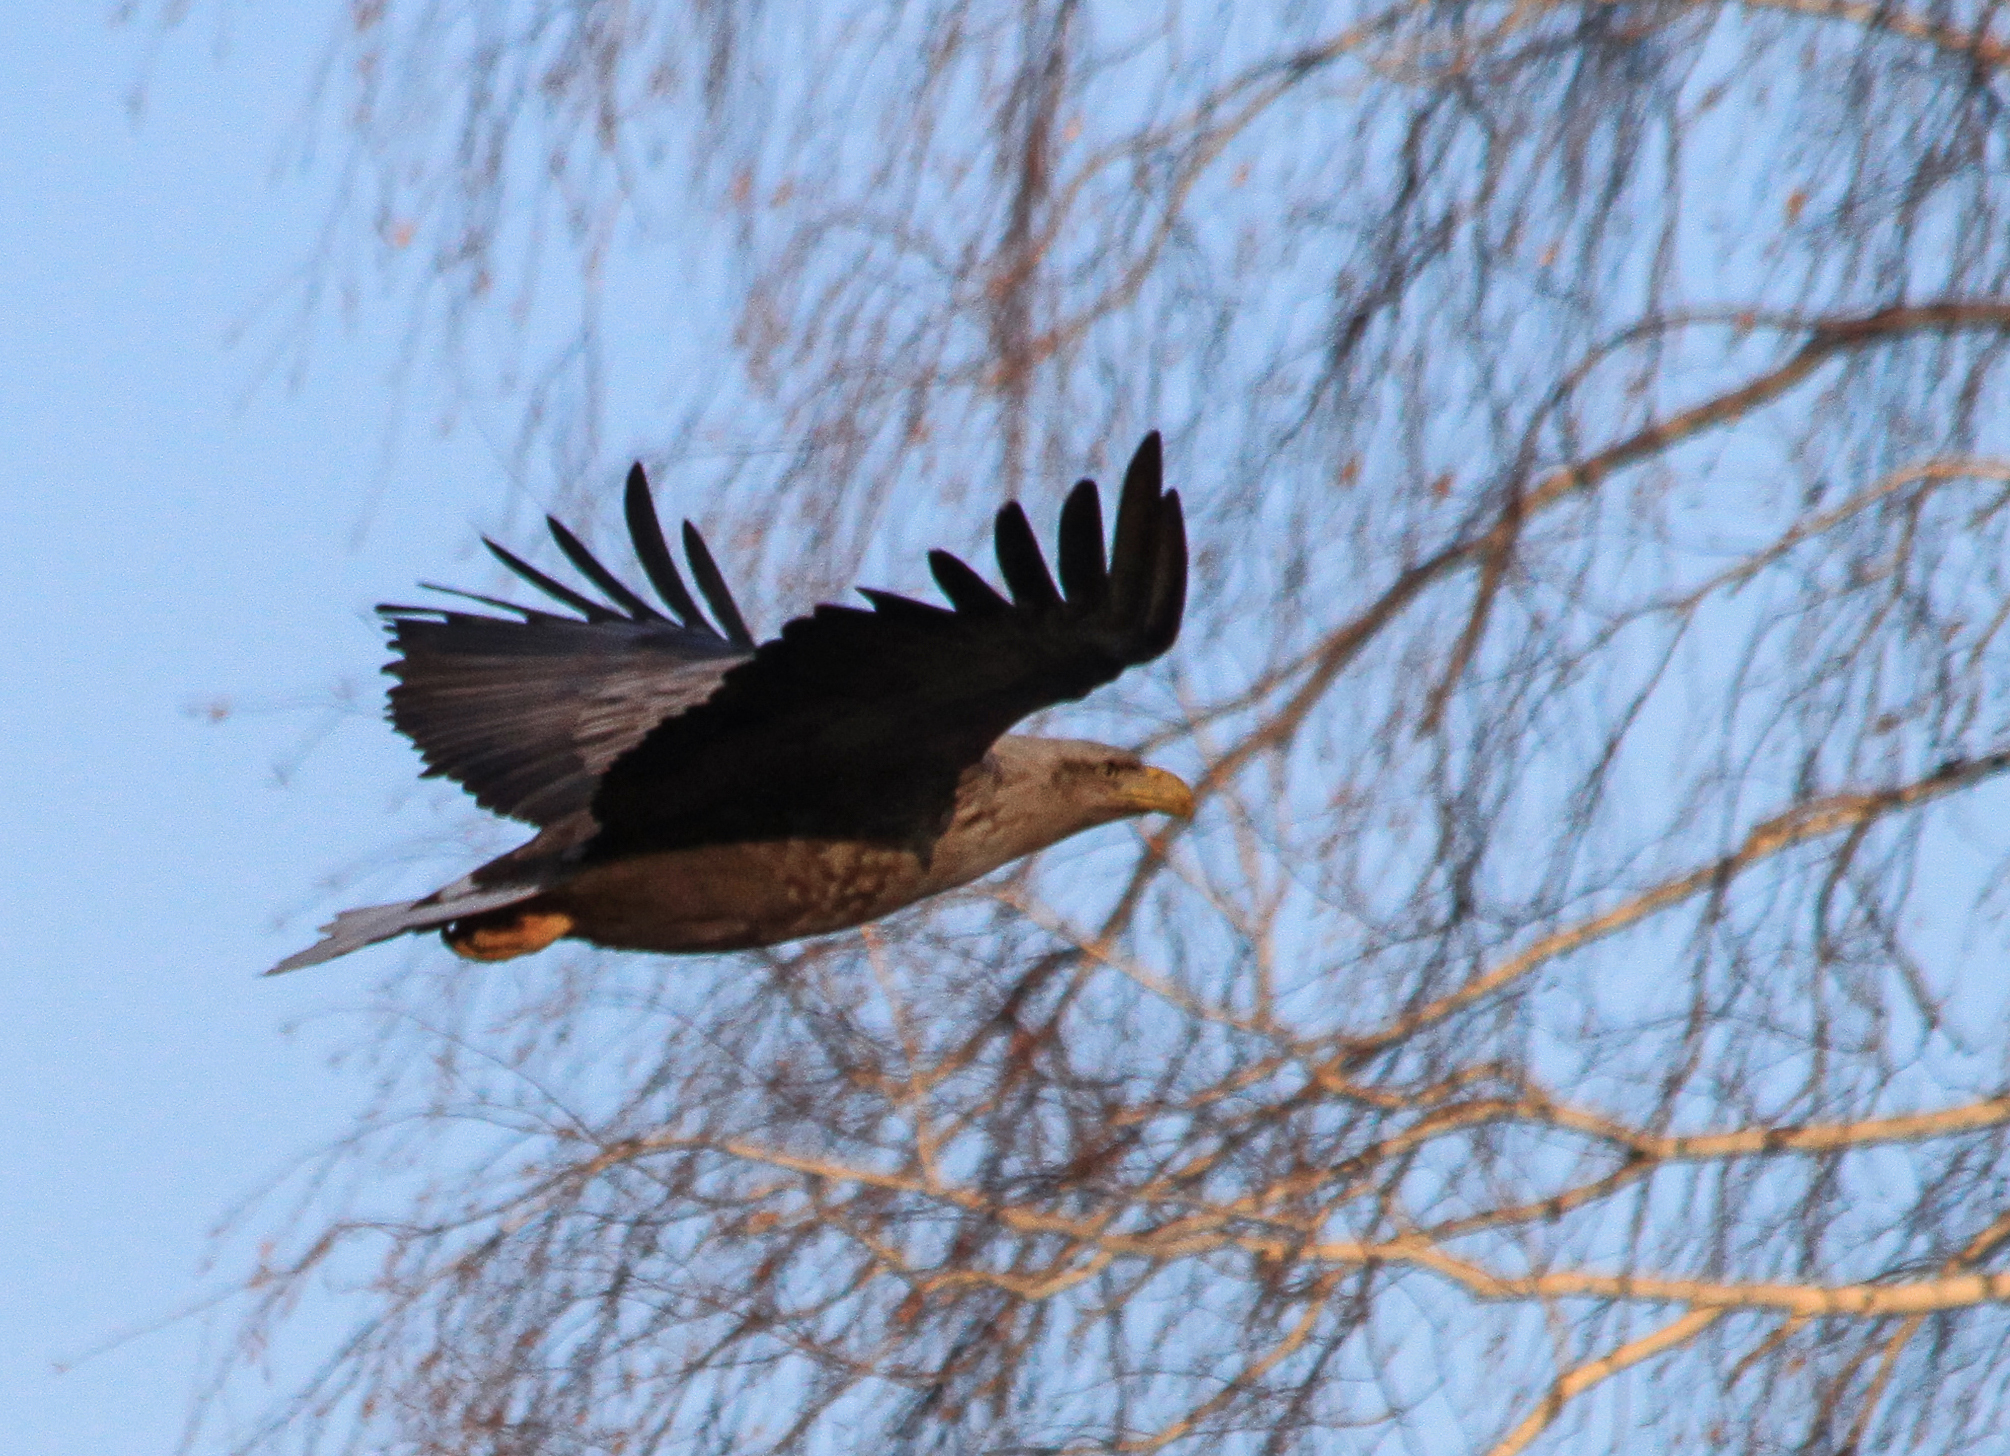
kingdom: Animalia
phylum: Chordata
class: Aves
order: Accipitriformes
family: Accipitridae
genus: Haliaeetus
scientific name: Haliaeetus albicilla
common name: White-tailed eagle
